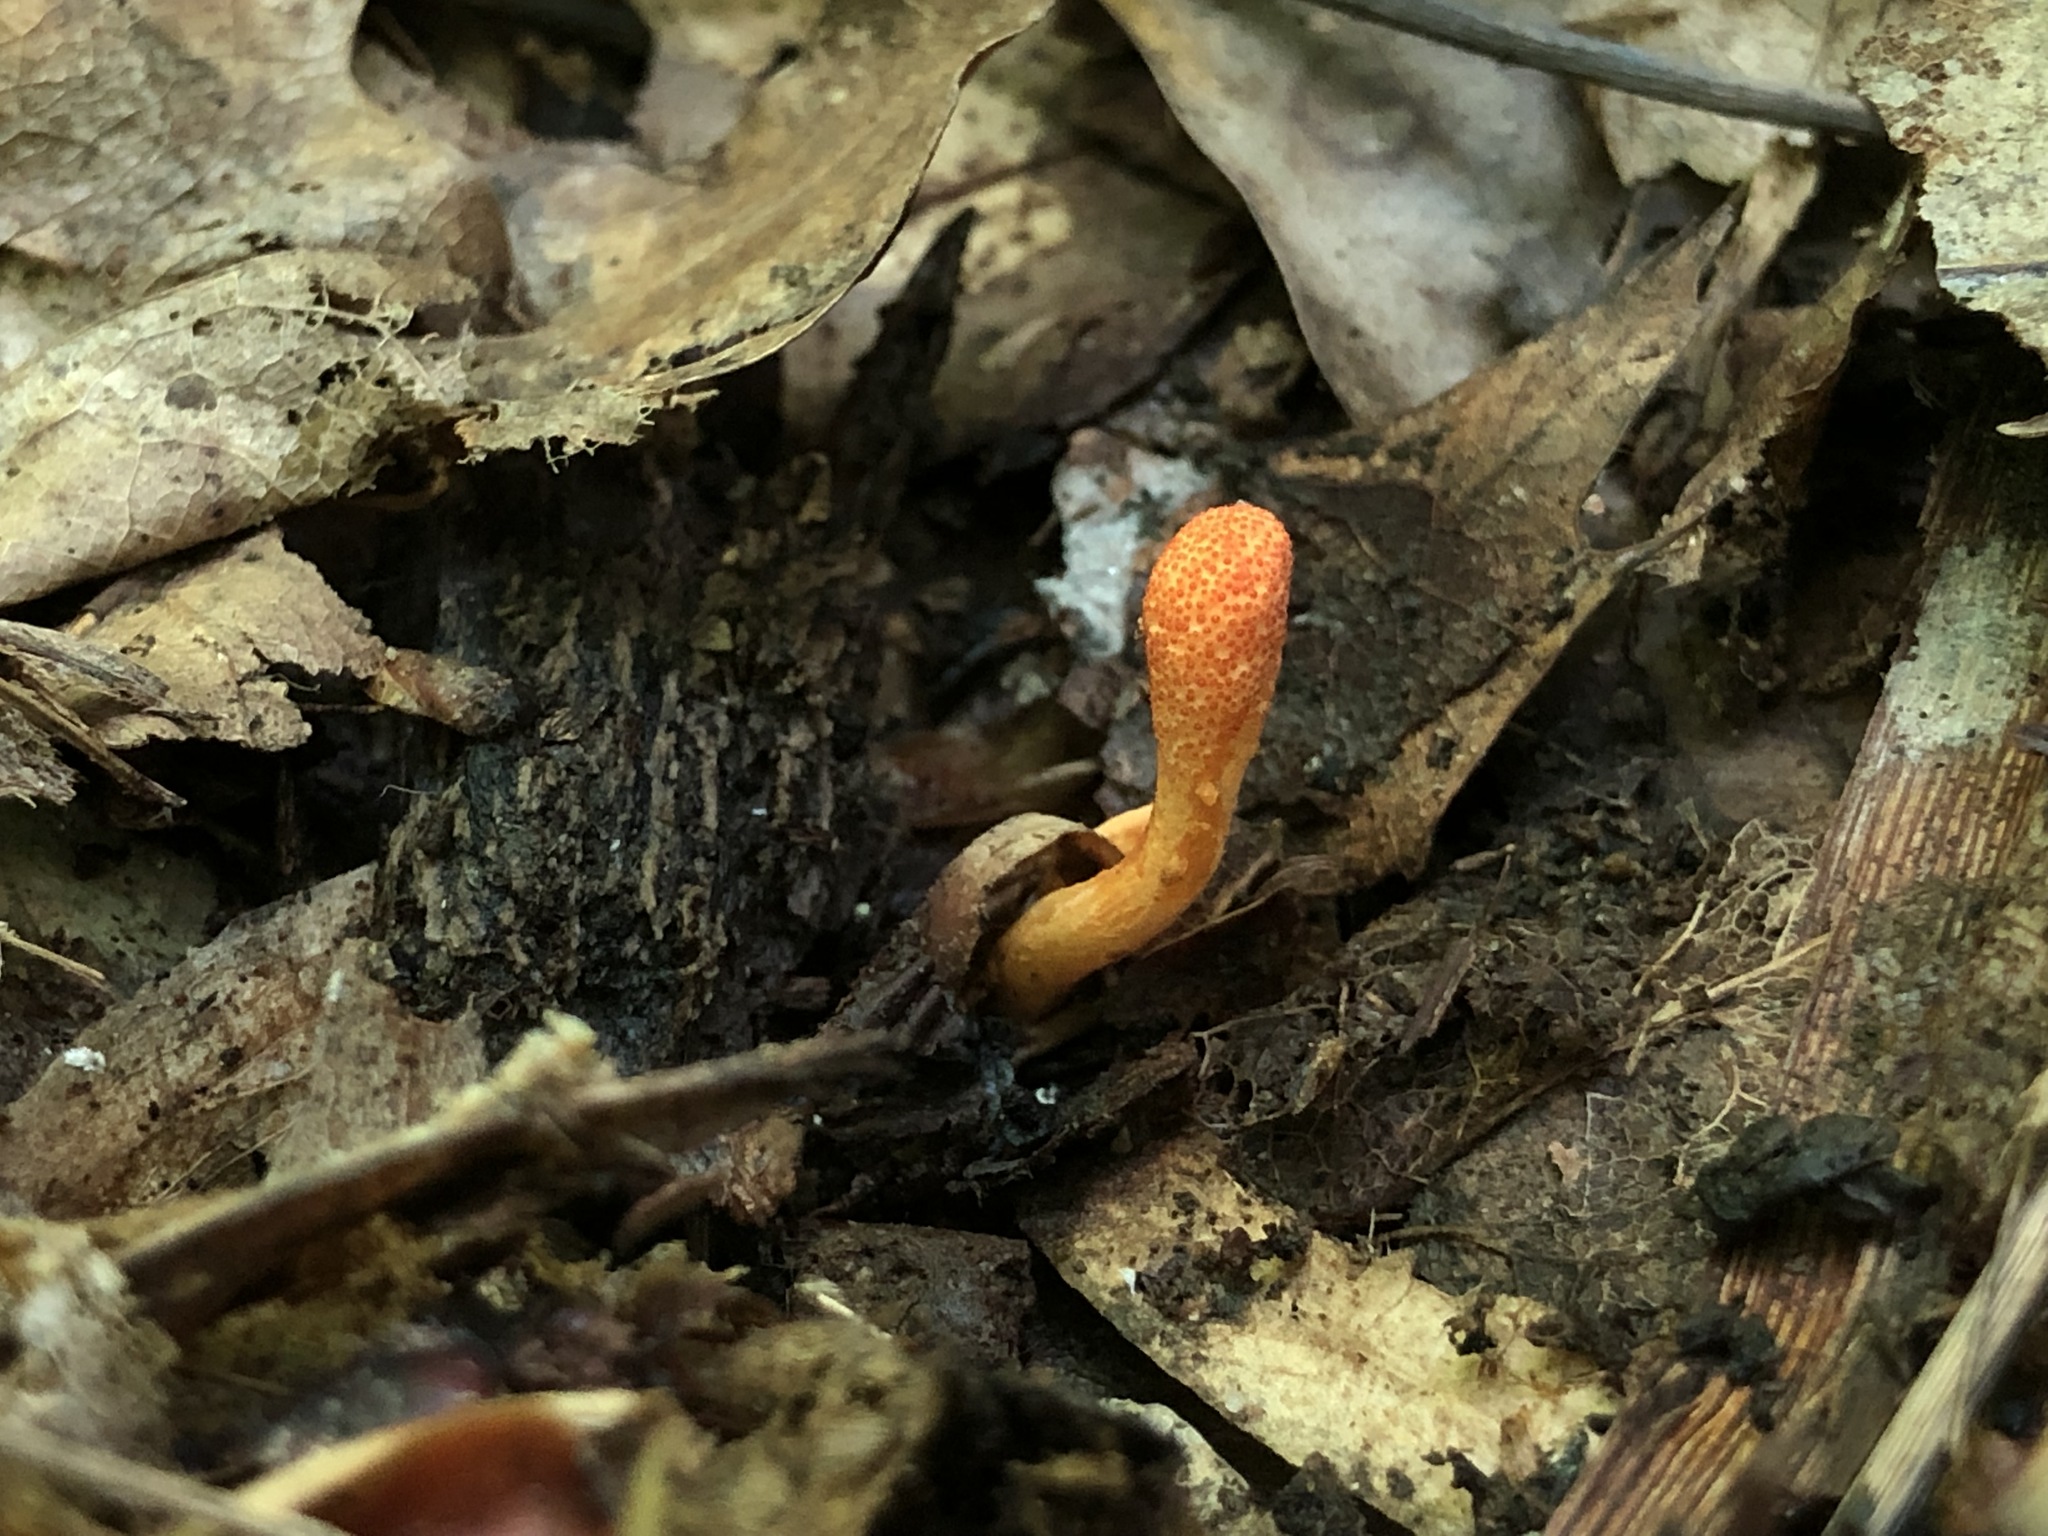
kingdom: Fungi
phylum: Ascomycota
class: Sordariomycetes
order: Hypocreales
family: Cordycipitaceae
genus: Cordyceps
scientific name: Cordyceps militaris
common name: Scarlet caterpillar fungus
